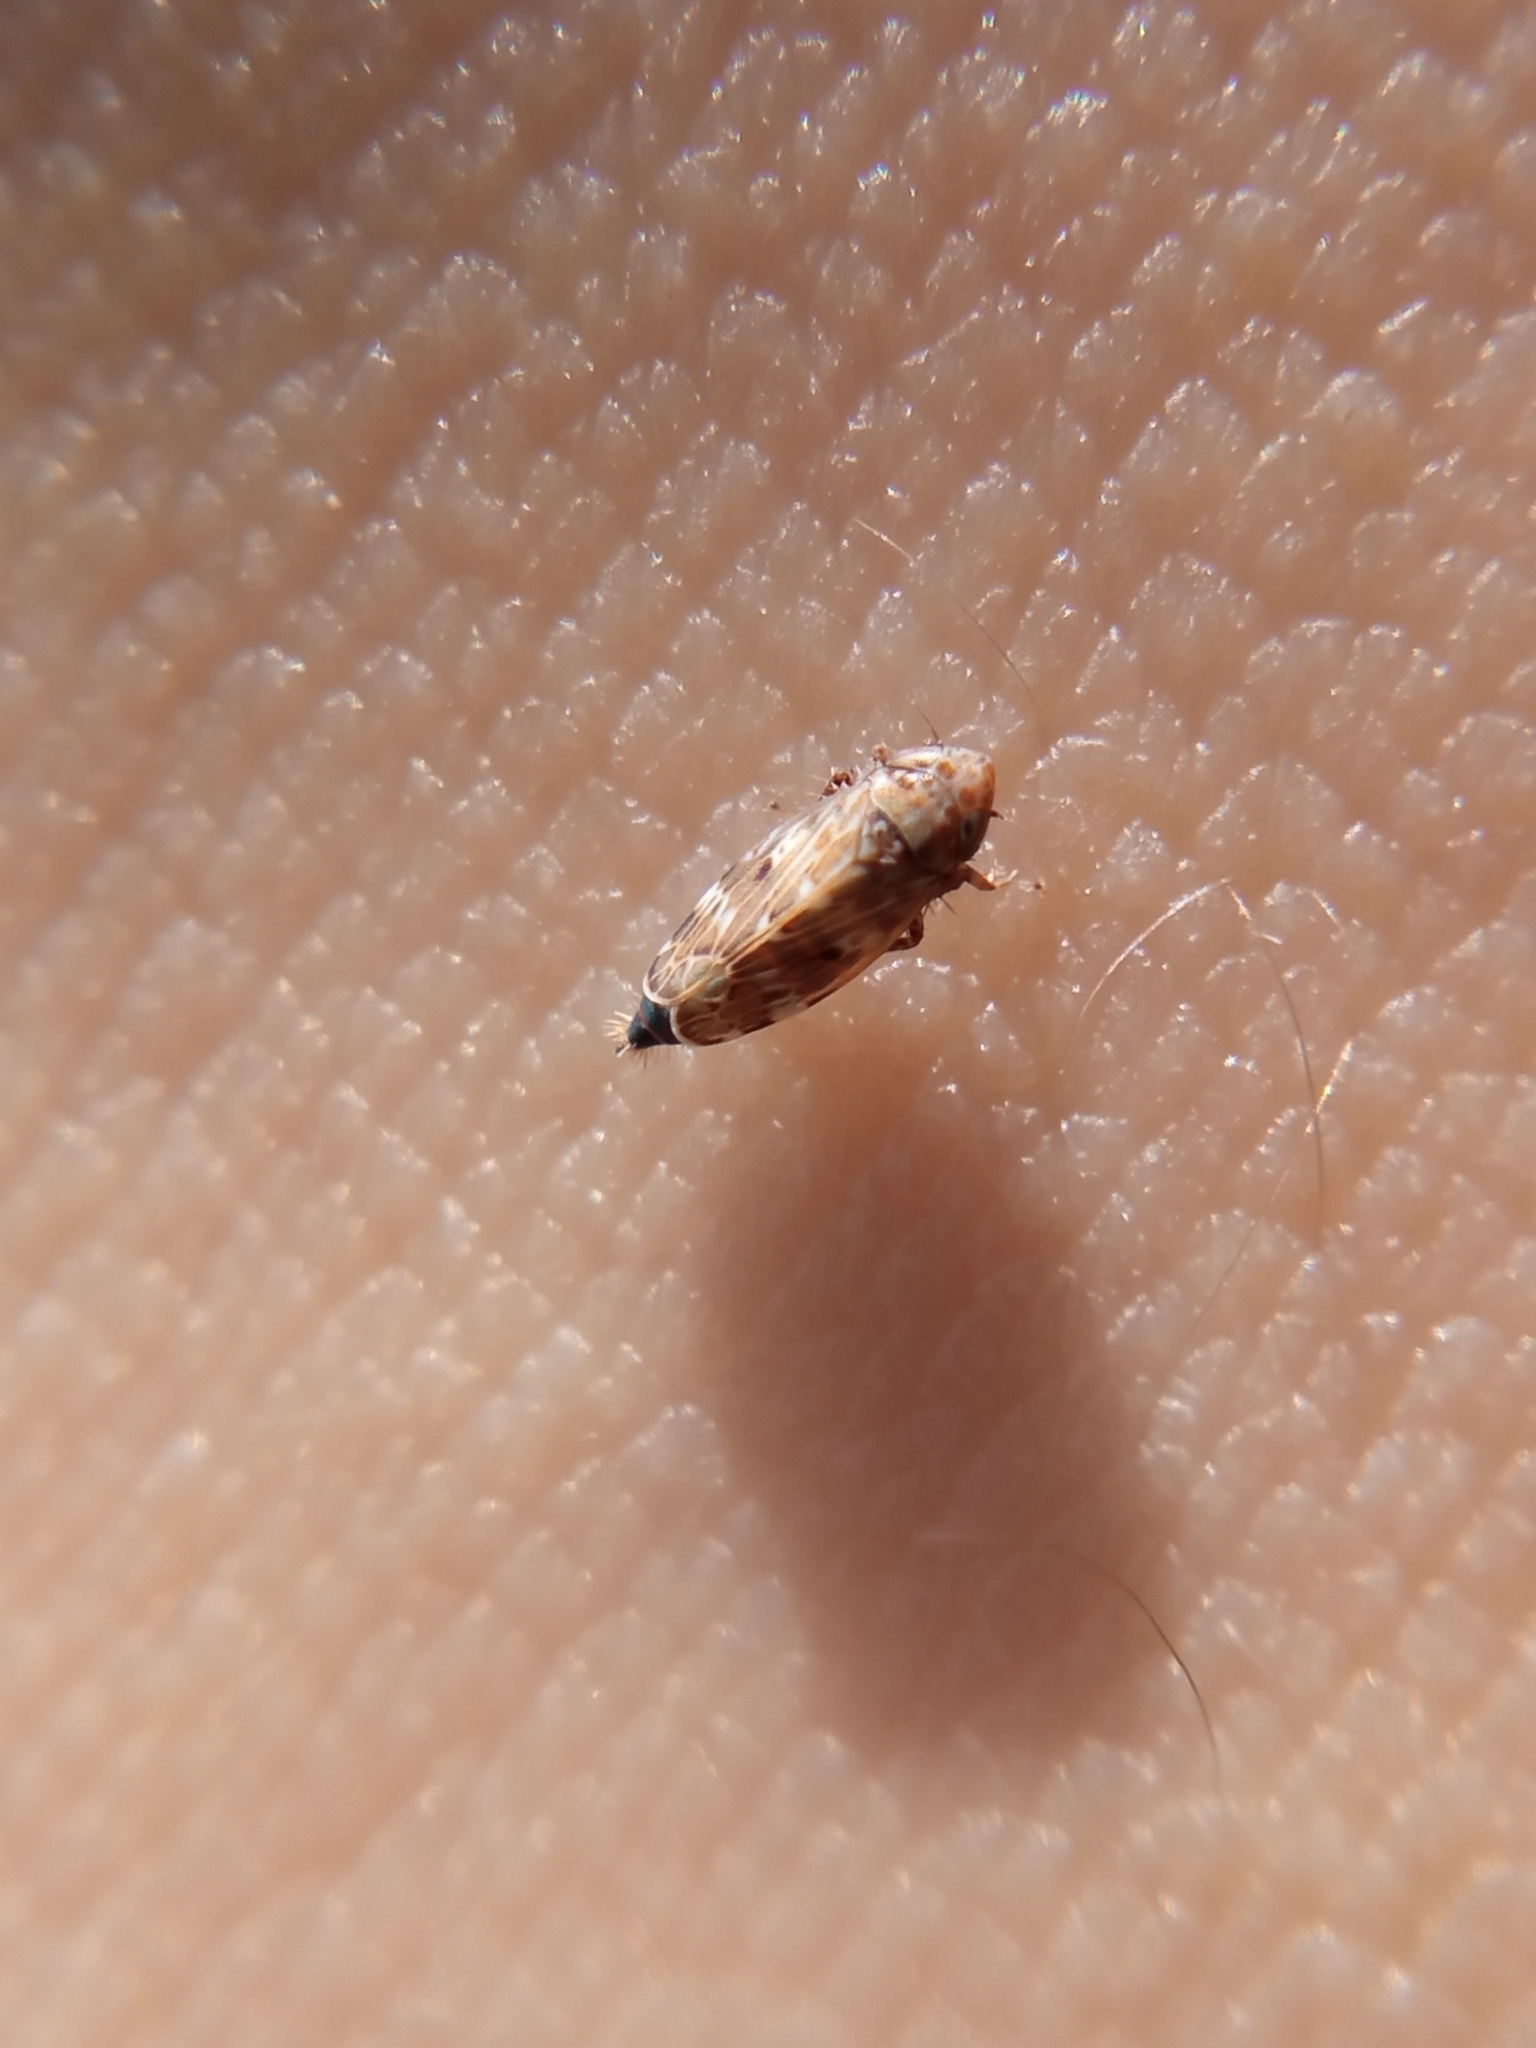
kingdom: Animalia
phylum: Arthropoda
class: Insecta
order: Hemiptera
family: Cicadellidae
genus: Sardius
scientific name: Sardius argus
